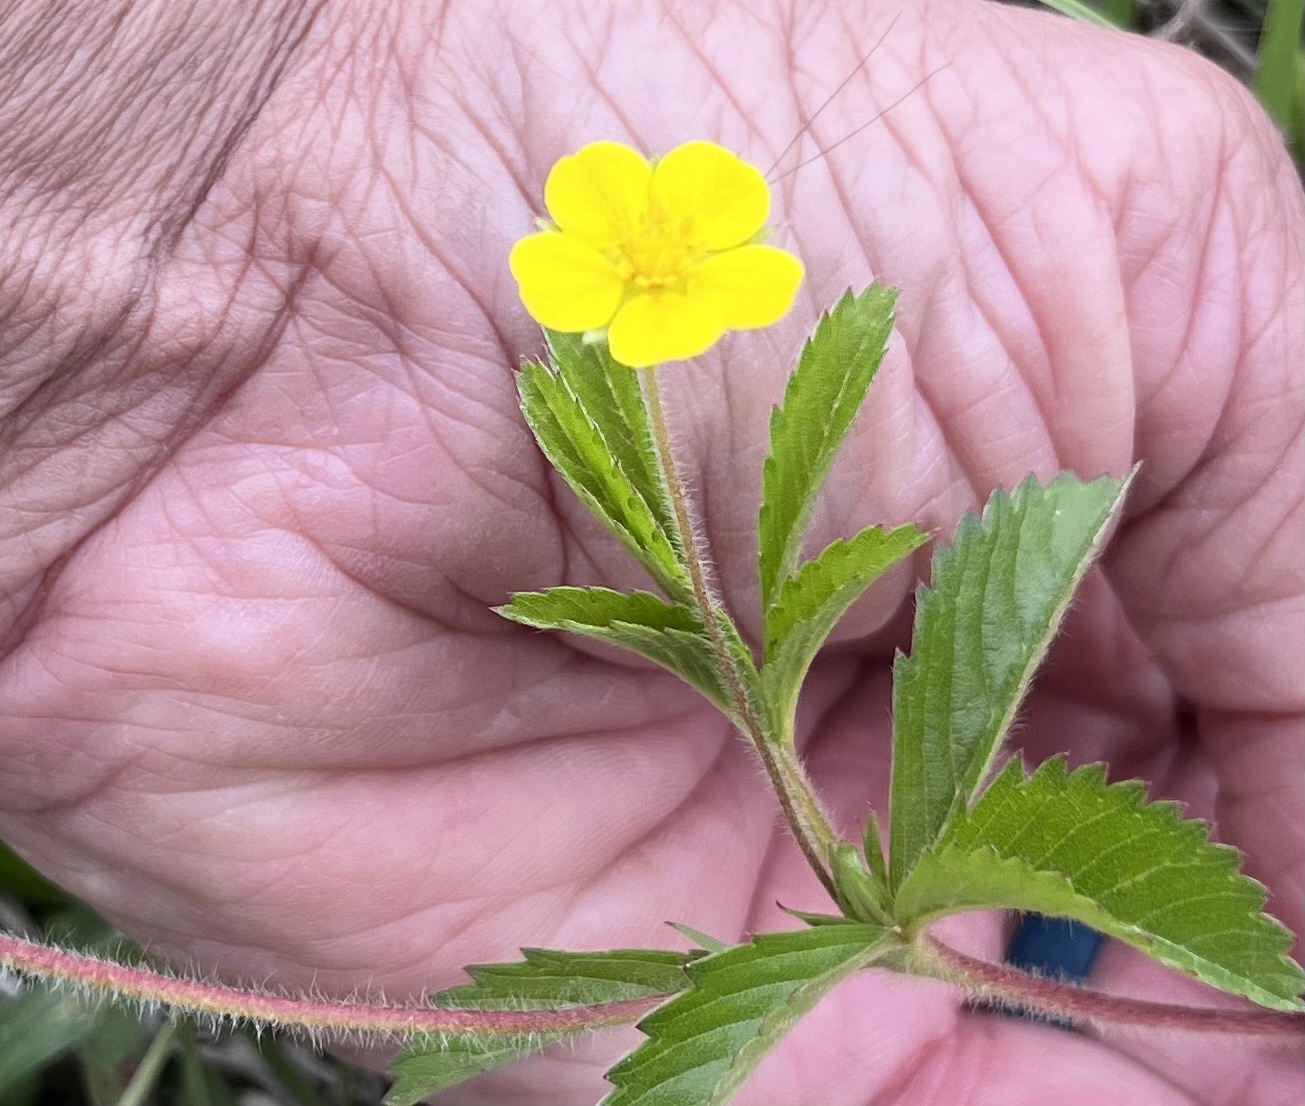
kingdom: Plantae
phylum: Tracheophyta
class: Magnoliopsida
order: Rosales
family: Rosaceae
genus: Potentilla
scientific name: Potentilla simplex
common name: Old field cinquefoil
